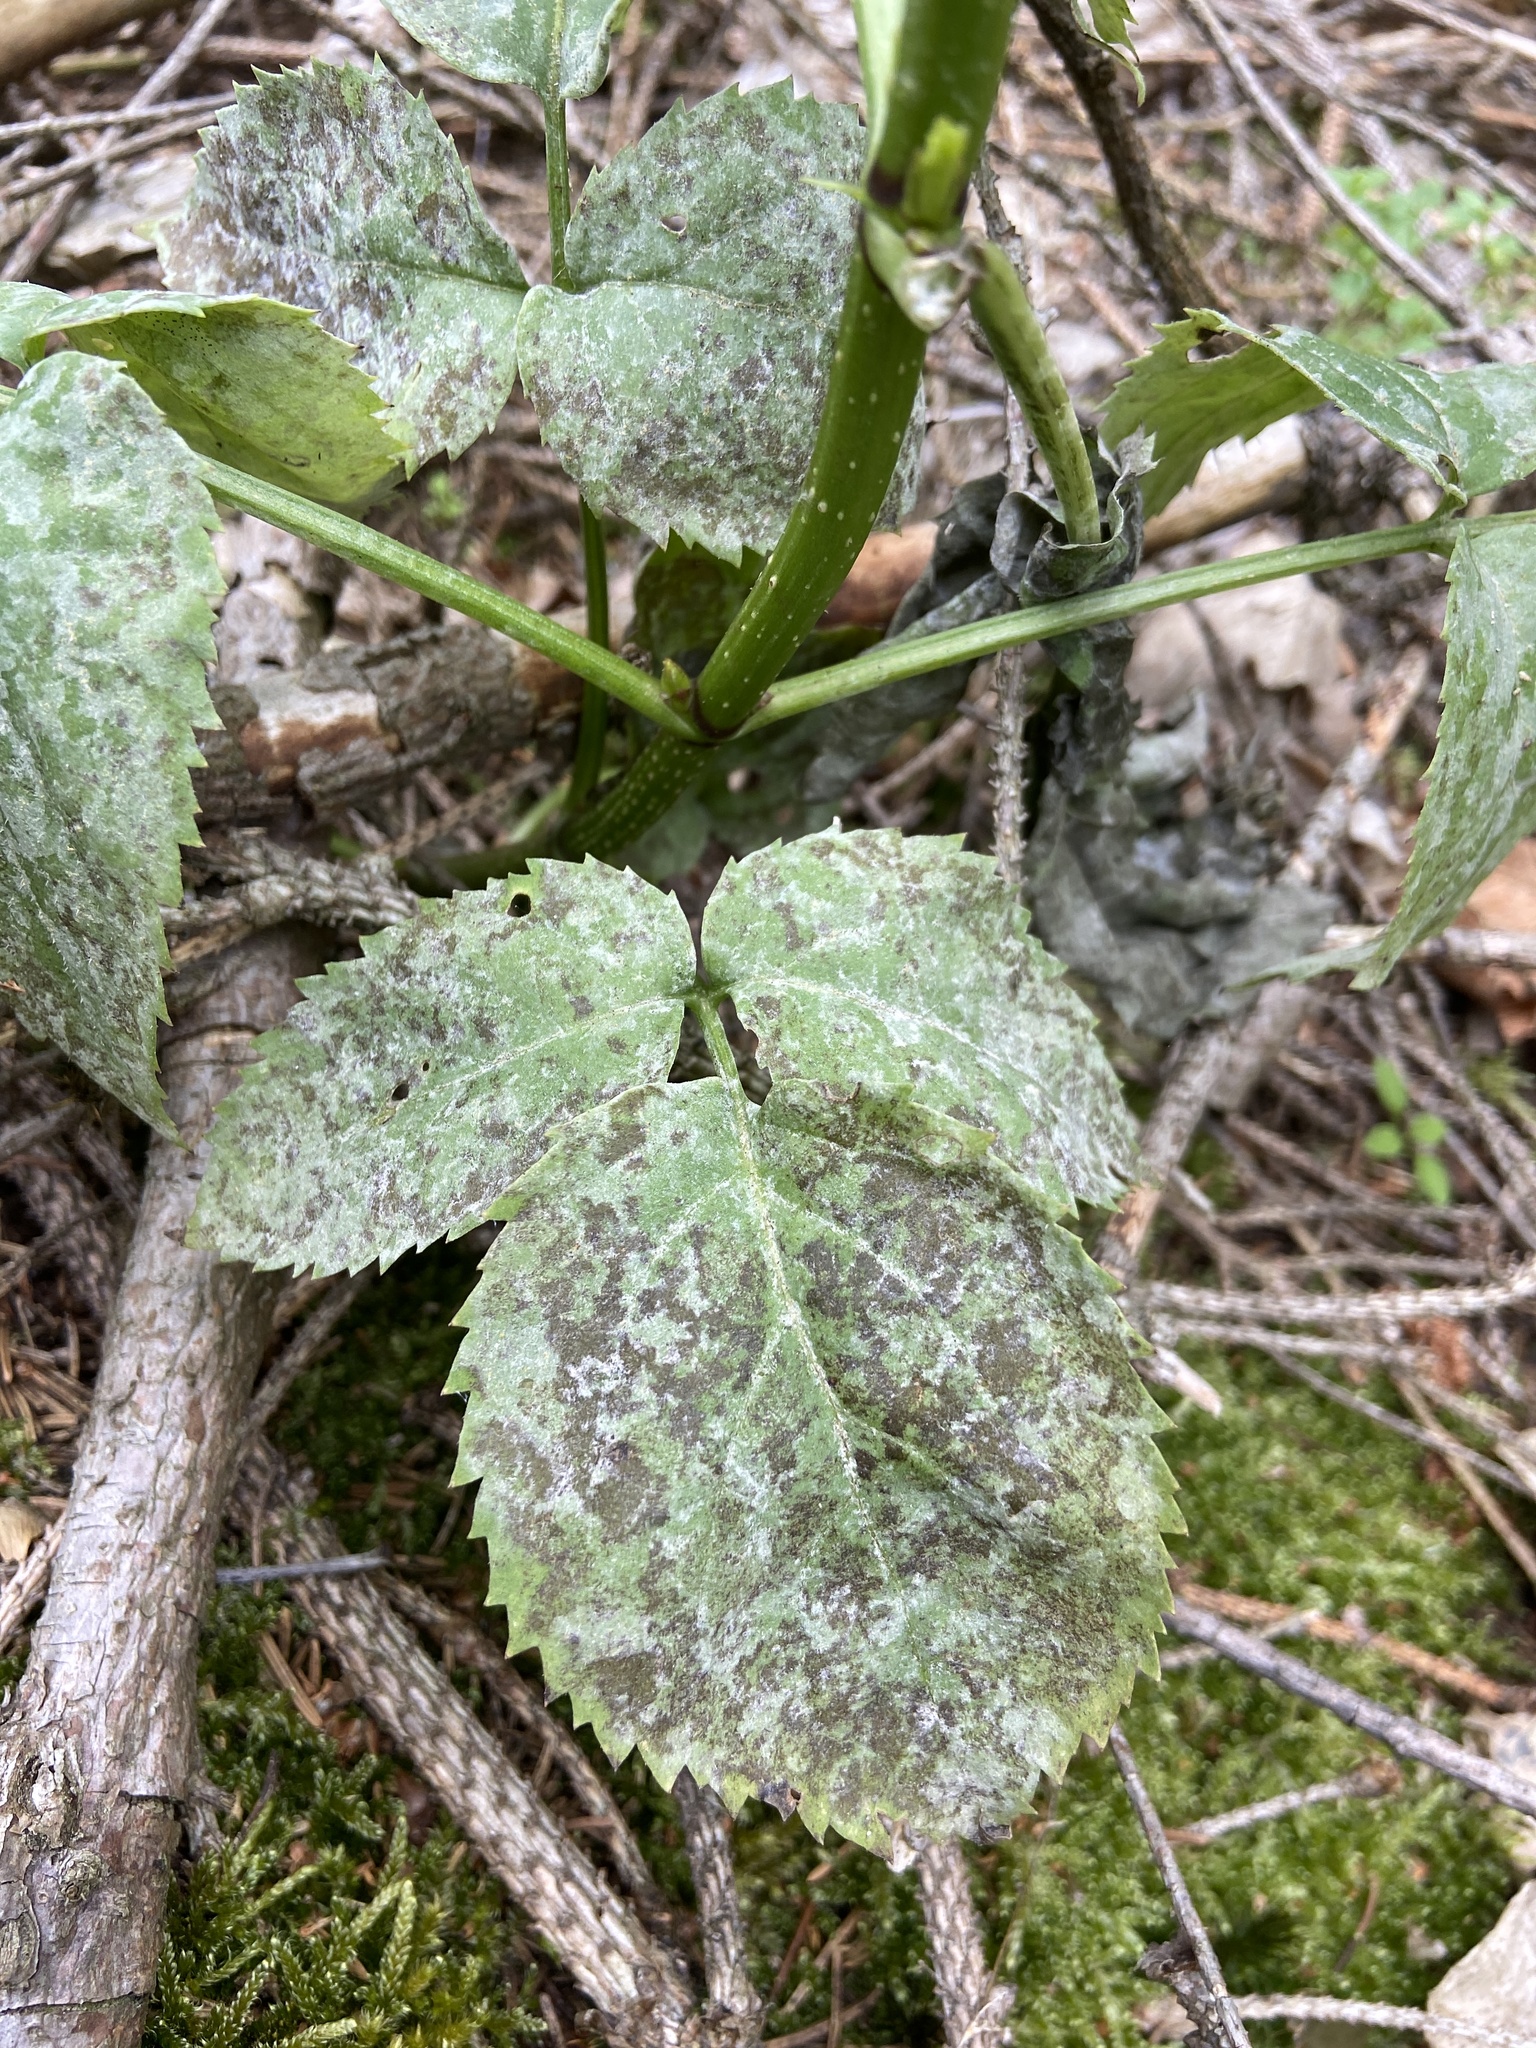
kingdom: Plantae
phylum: Tracheophyta
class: Magnoliopsida
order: Dipsacales
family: Viburnaceae
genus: Sambucus
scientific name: Sambucus nigra
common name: Elder
